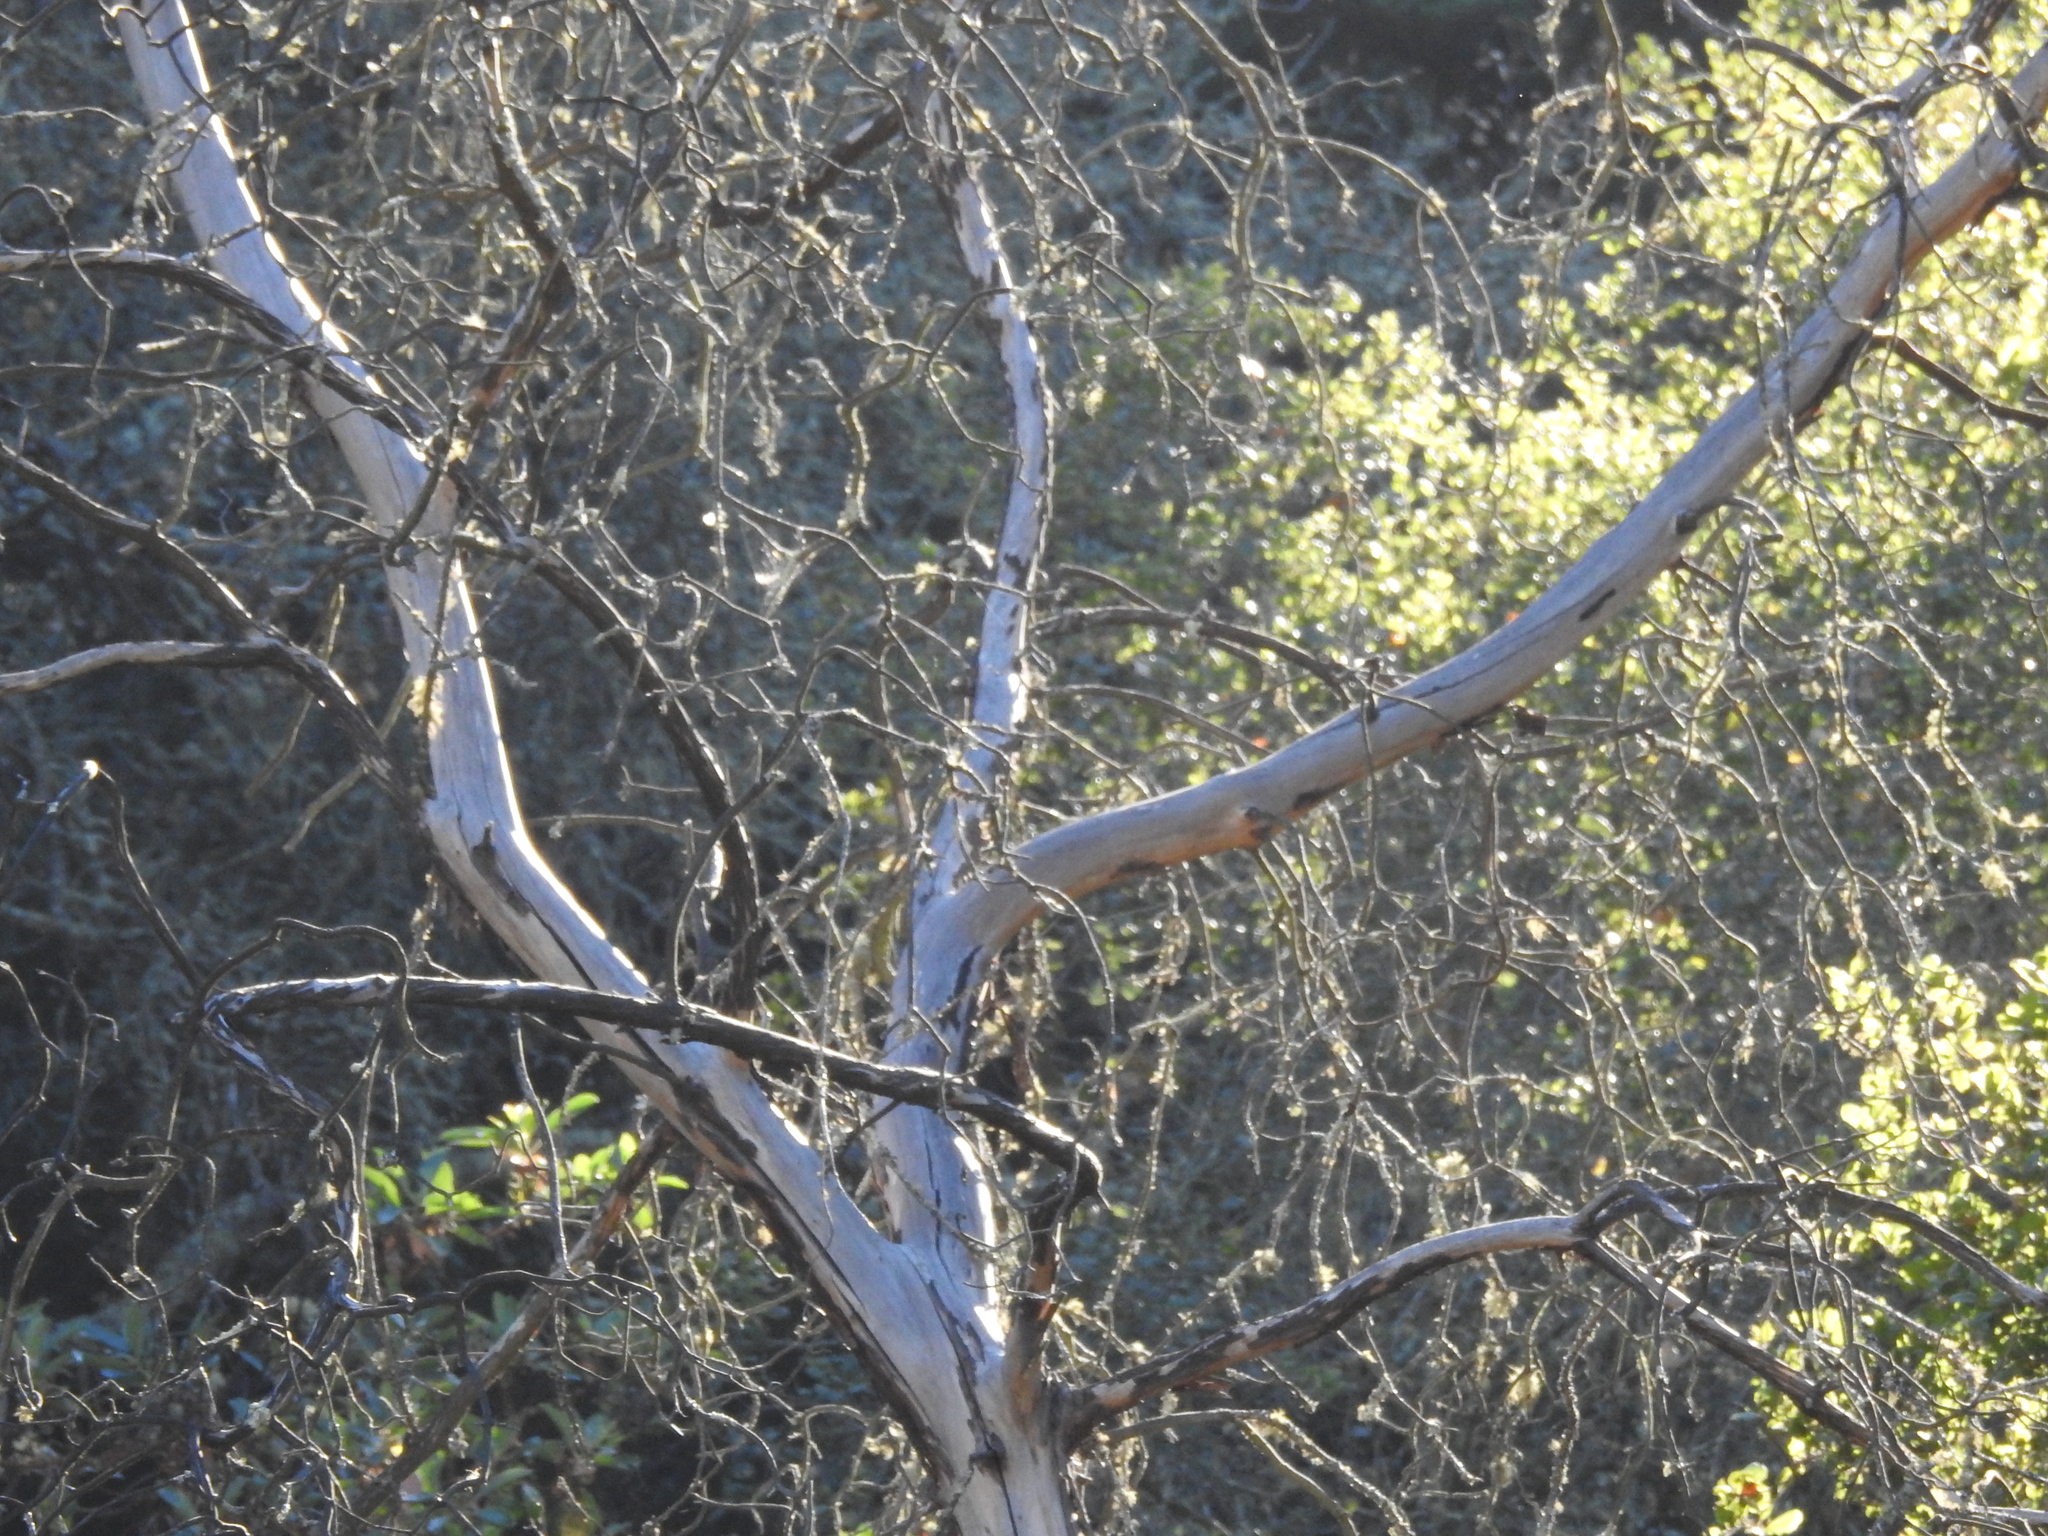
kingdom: Plantae
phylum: Tracheophyta
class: Magnoliopsida
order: Rosales
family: Rosaceae
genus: Heteromeles
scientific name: Heteromeles arbutifolia
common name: California-holly
